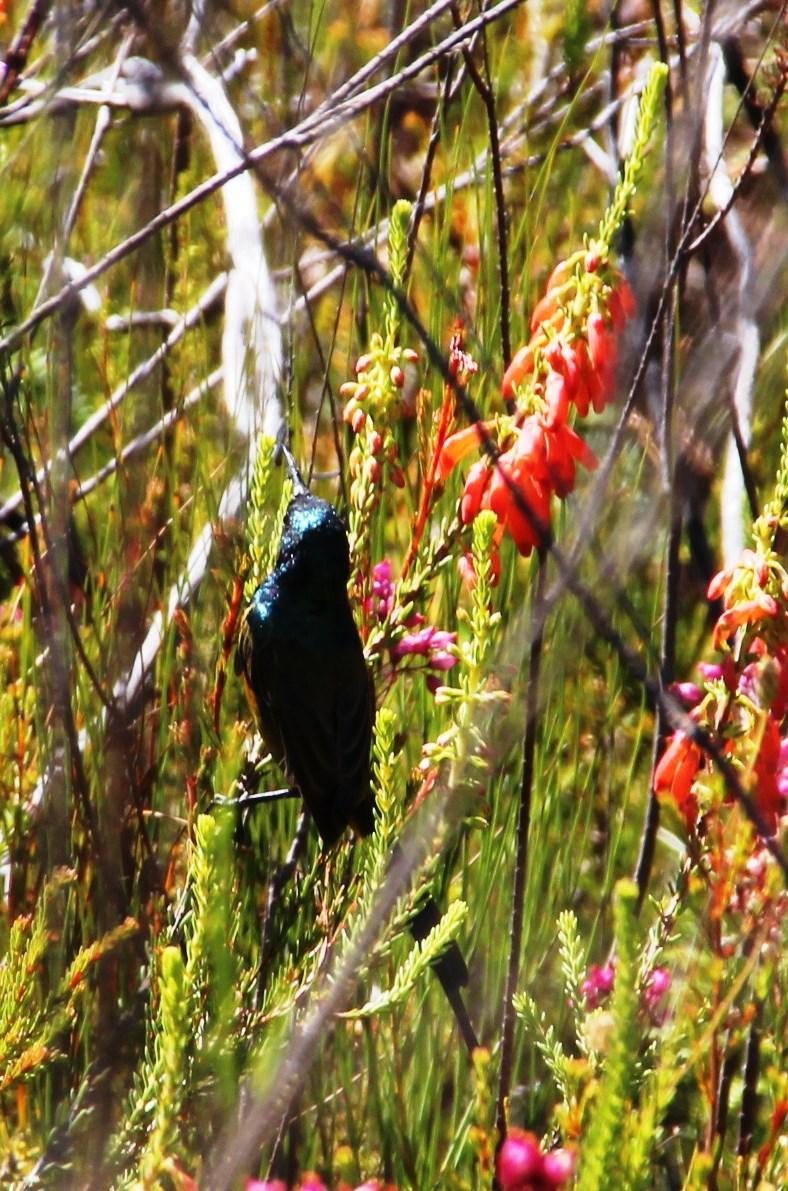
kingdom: Plantae
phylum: Tracheophyta
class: Magnoliopsida
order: Ericales
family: Ericaceae
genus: Erica
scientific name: Erica mammosa
